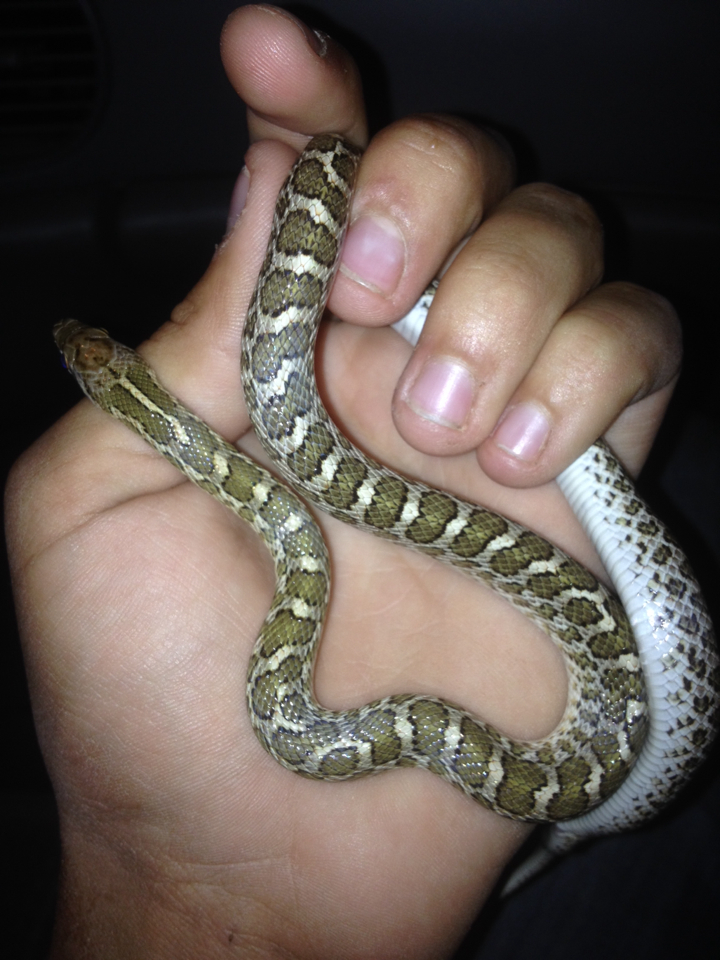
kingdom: Animalia
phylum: Chordata
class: Squamata
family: Colubridae
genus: Arizona
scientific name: Arizona elegans
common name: Glossy snake
